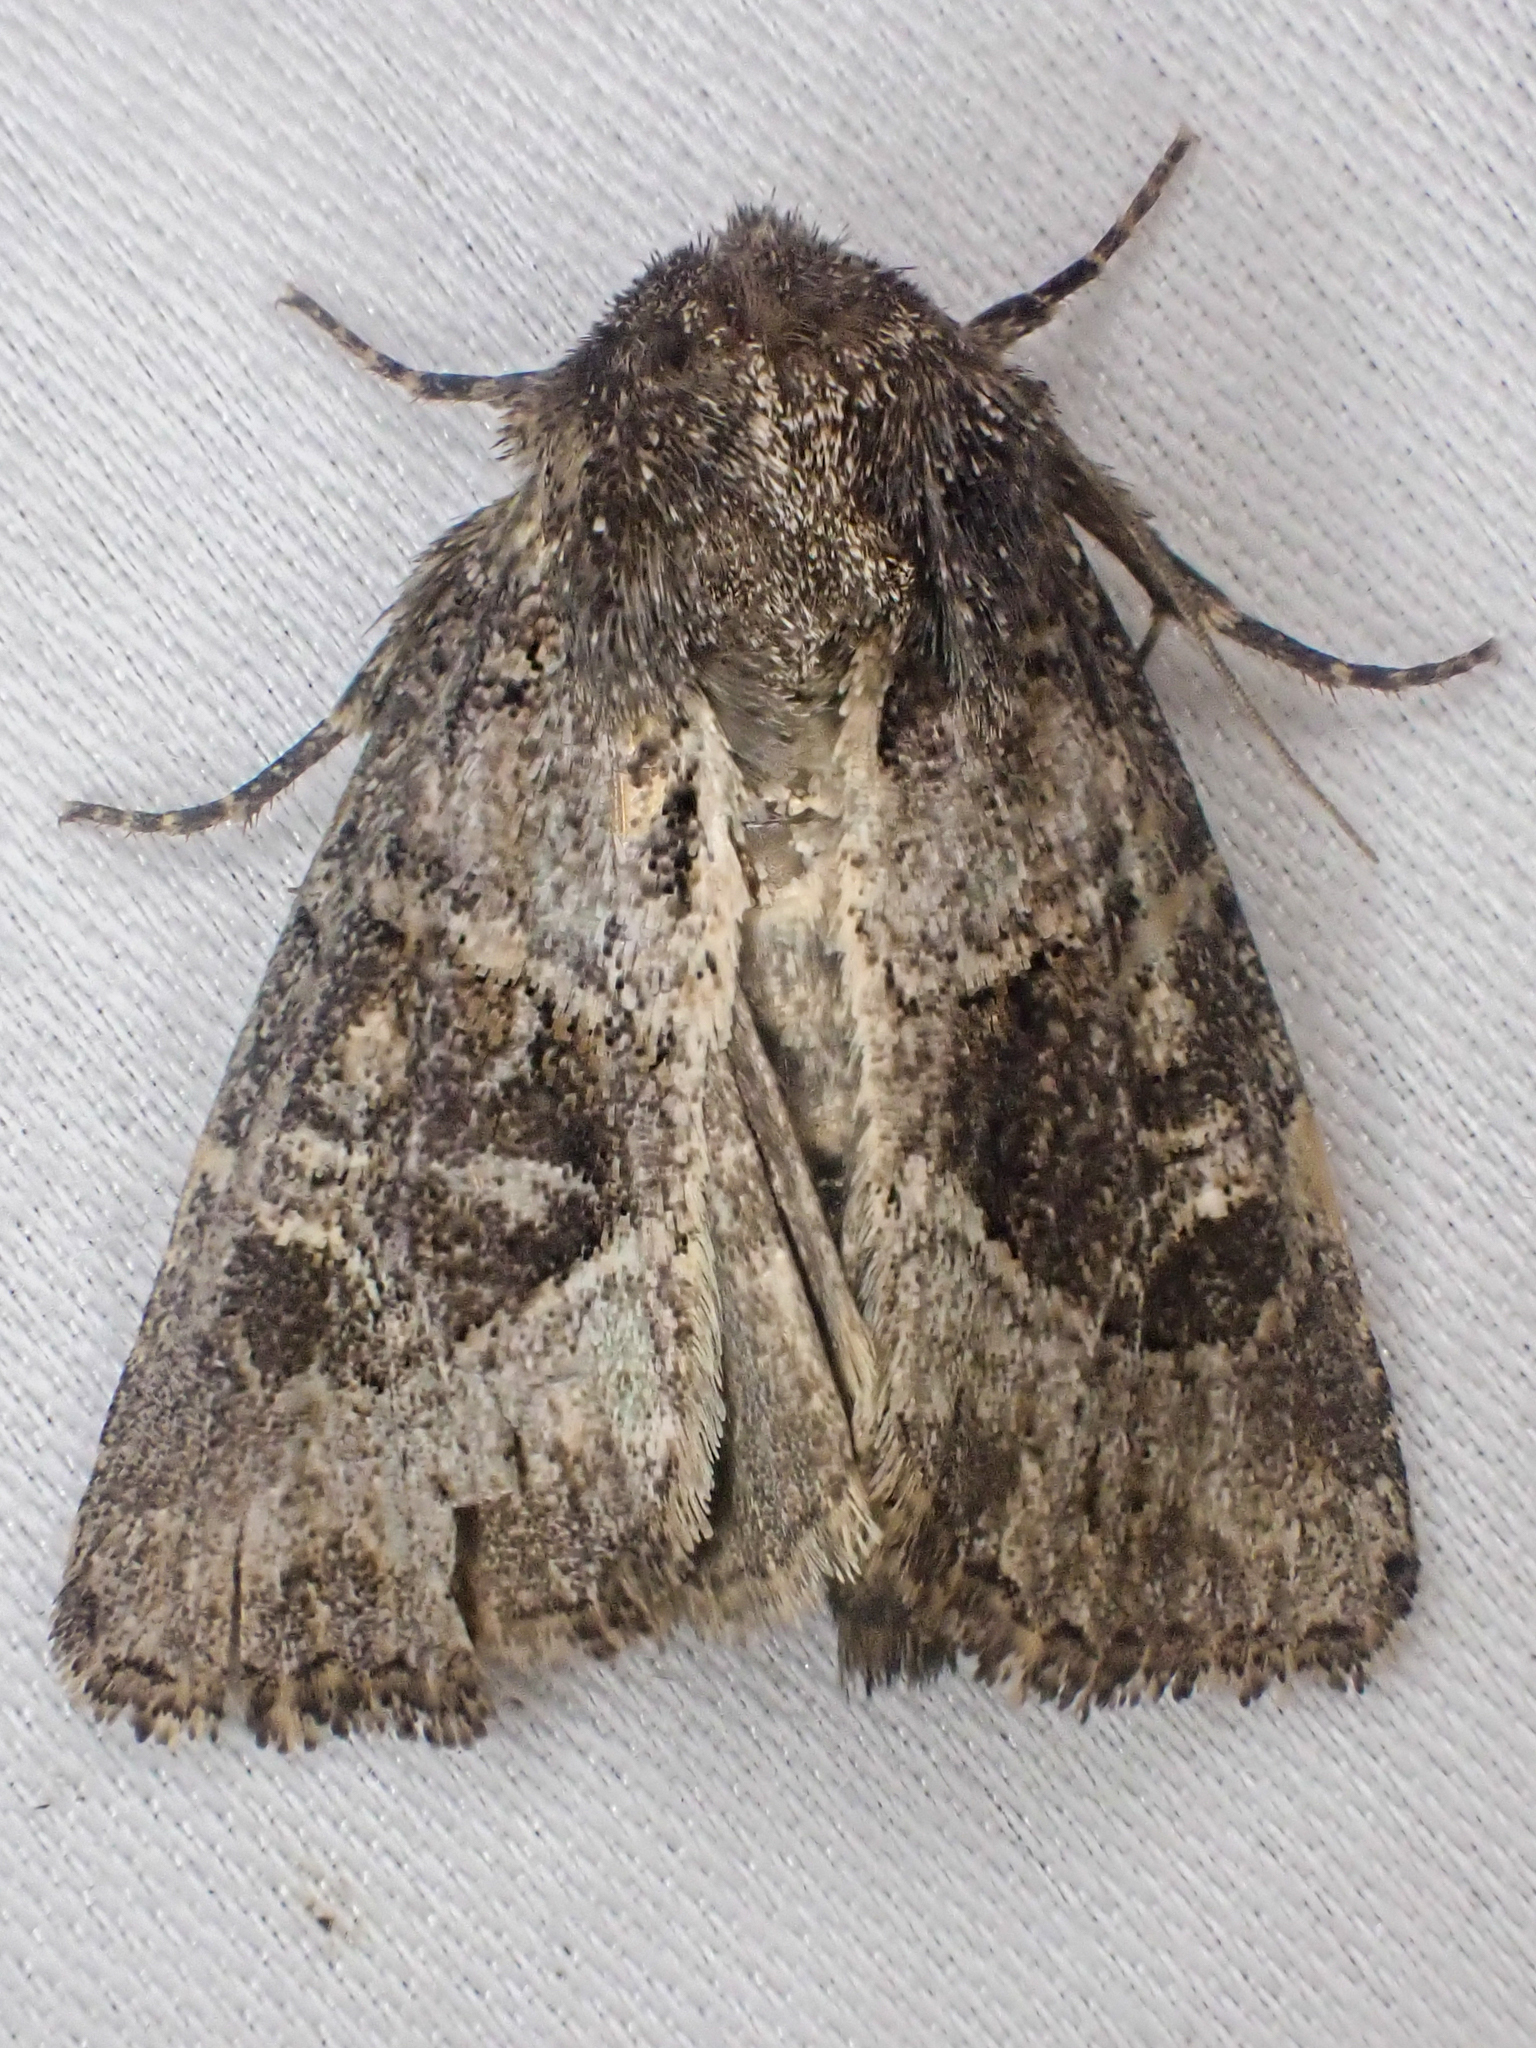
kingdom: Animalia
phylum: Arthropoda
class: Insecta
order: Lepidoptera
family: Noctuidae
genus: Oligia
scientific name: Oligia obtusa
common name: Obtuse sedge borer
